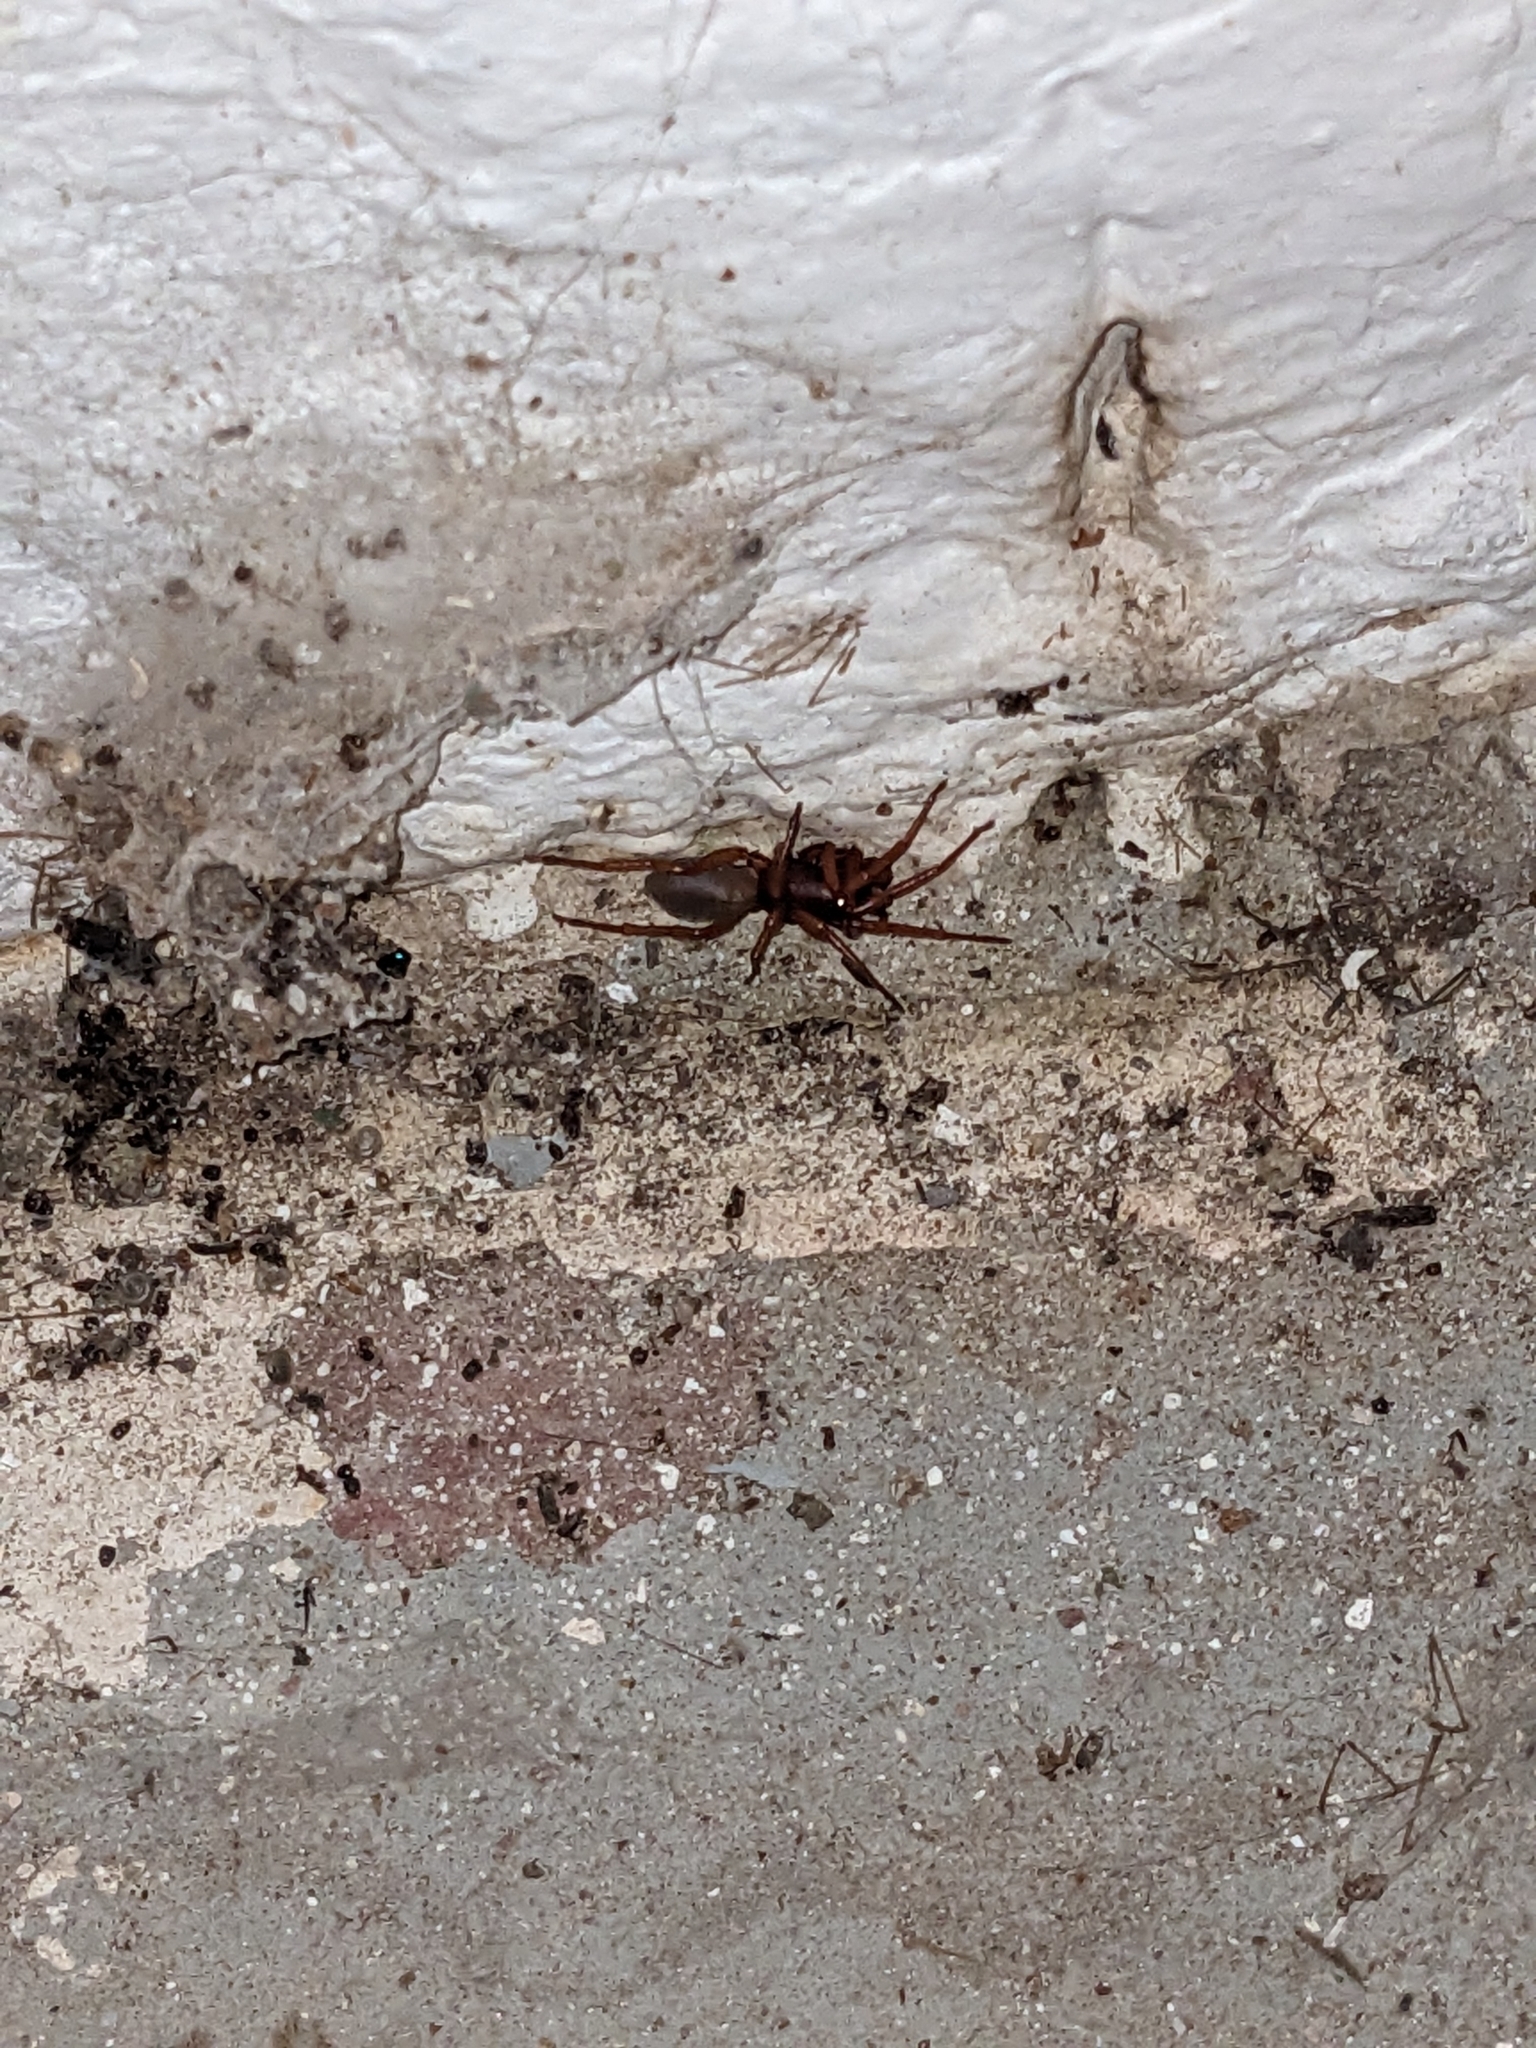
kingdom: Animalia
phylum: Arthropoda
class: Arachnida
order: Araneae
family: Dysderidae
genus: Dysdera
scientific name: Dysdera crocata
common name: Woodlouse spider
